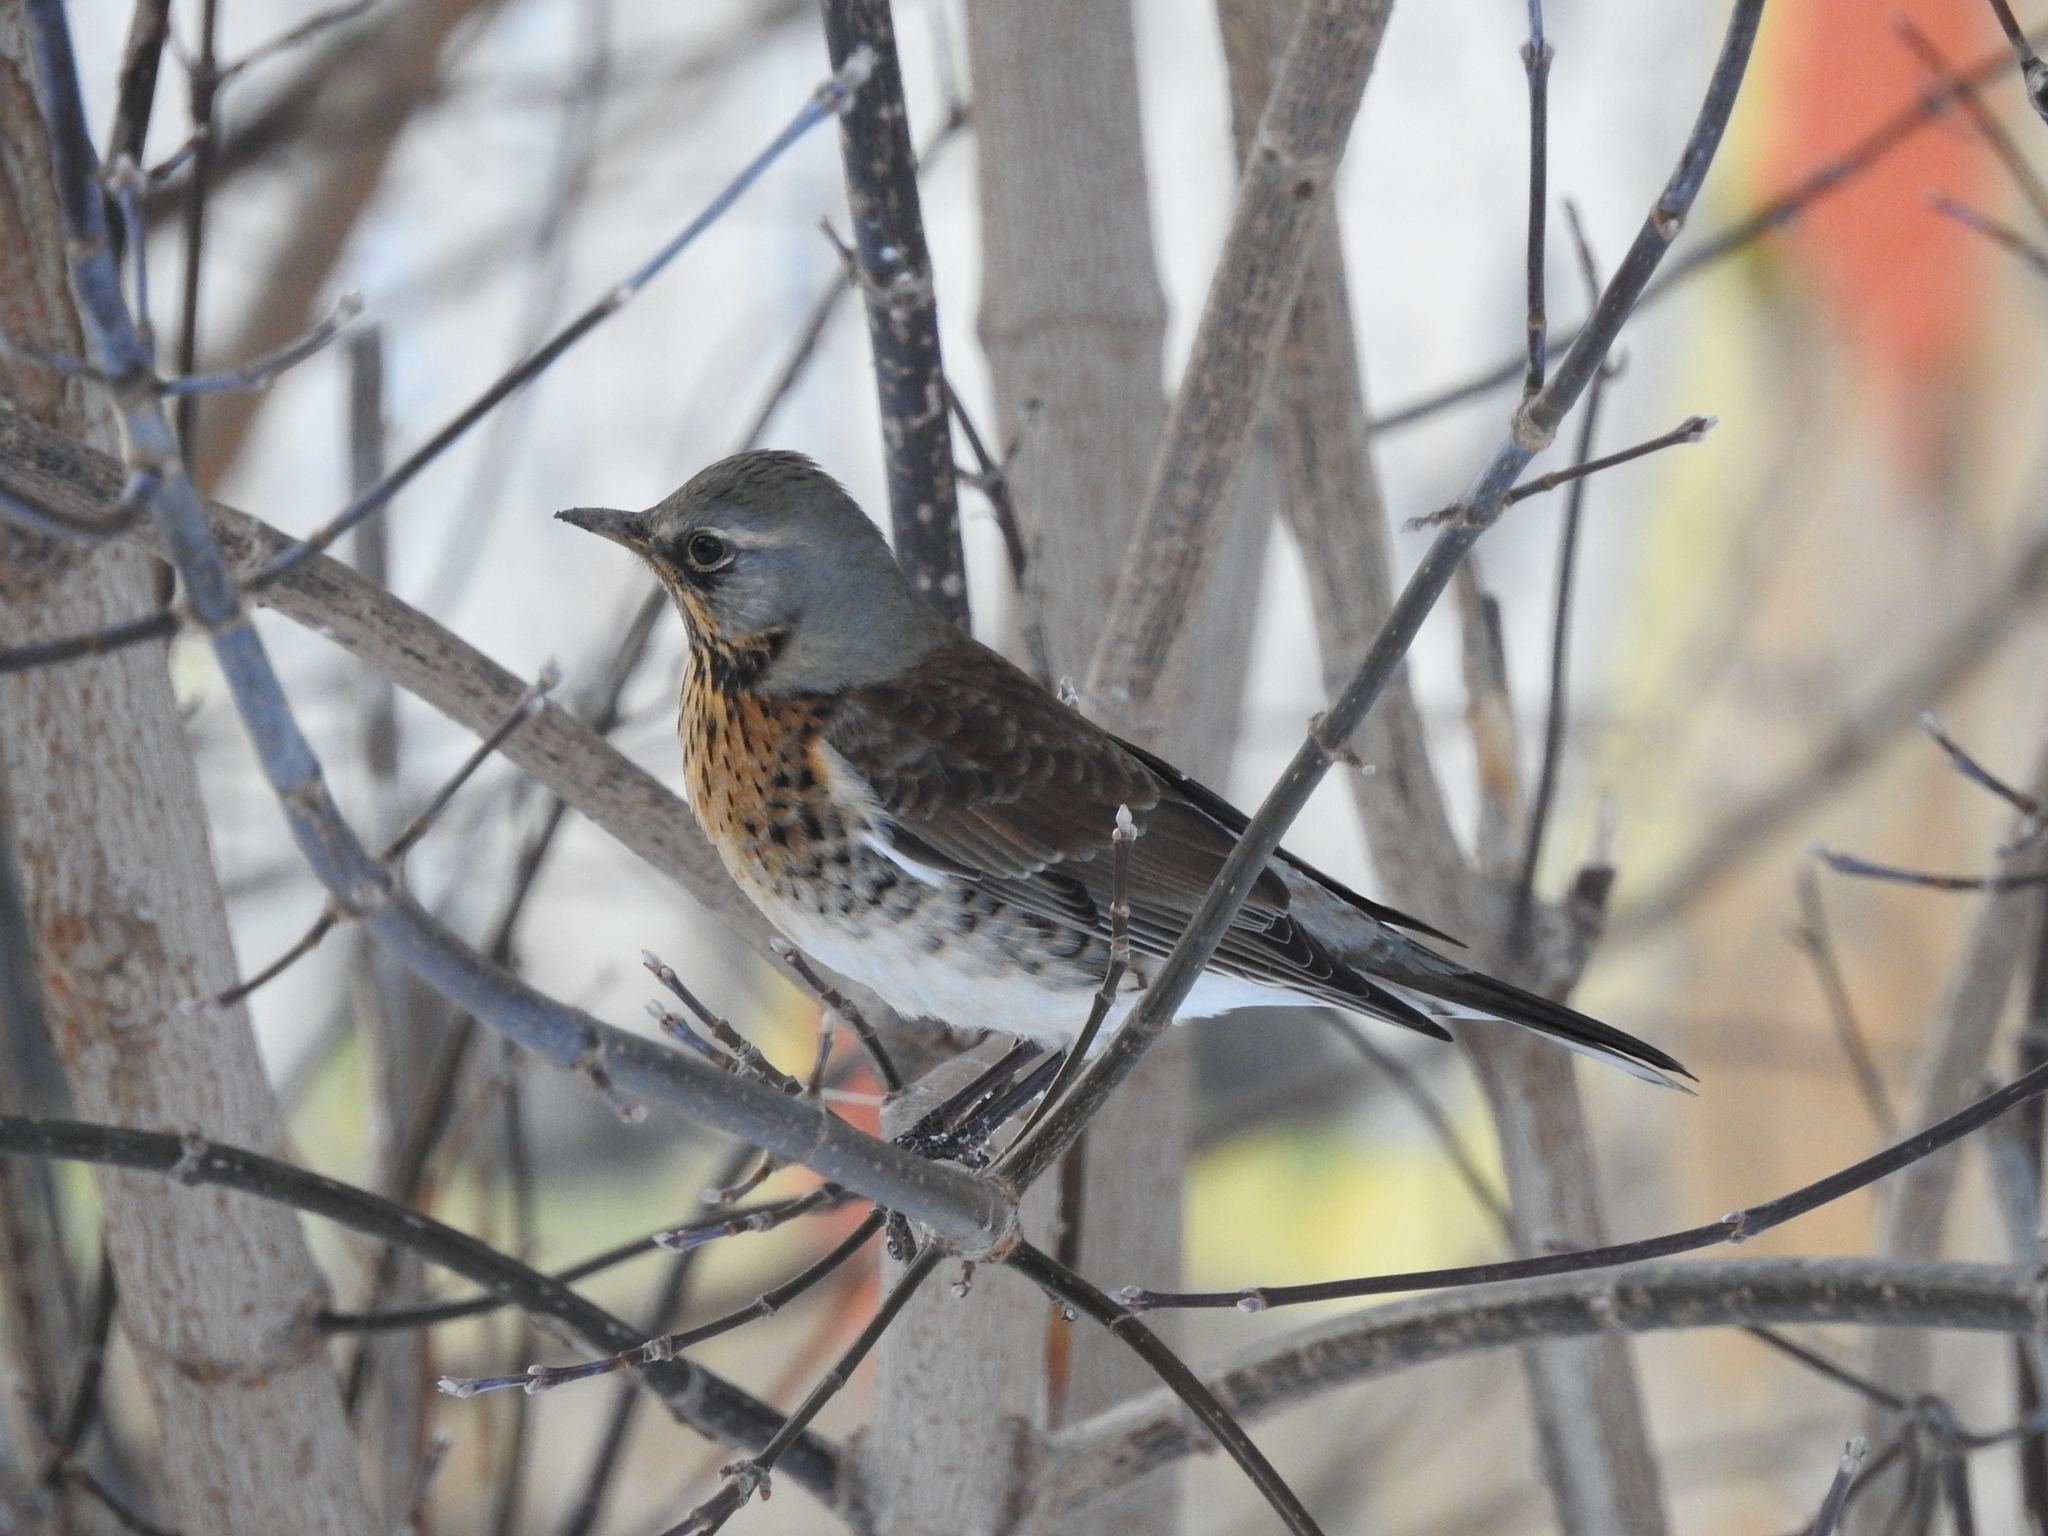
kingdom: Animalia
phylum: Chordata
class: Aves
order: Passeriformes
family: Turdidae
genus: Turdus
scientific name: Turdus pilaris
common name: Fieldfare
